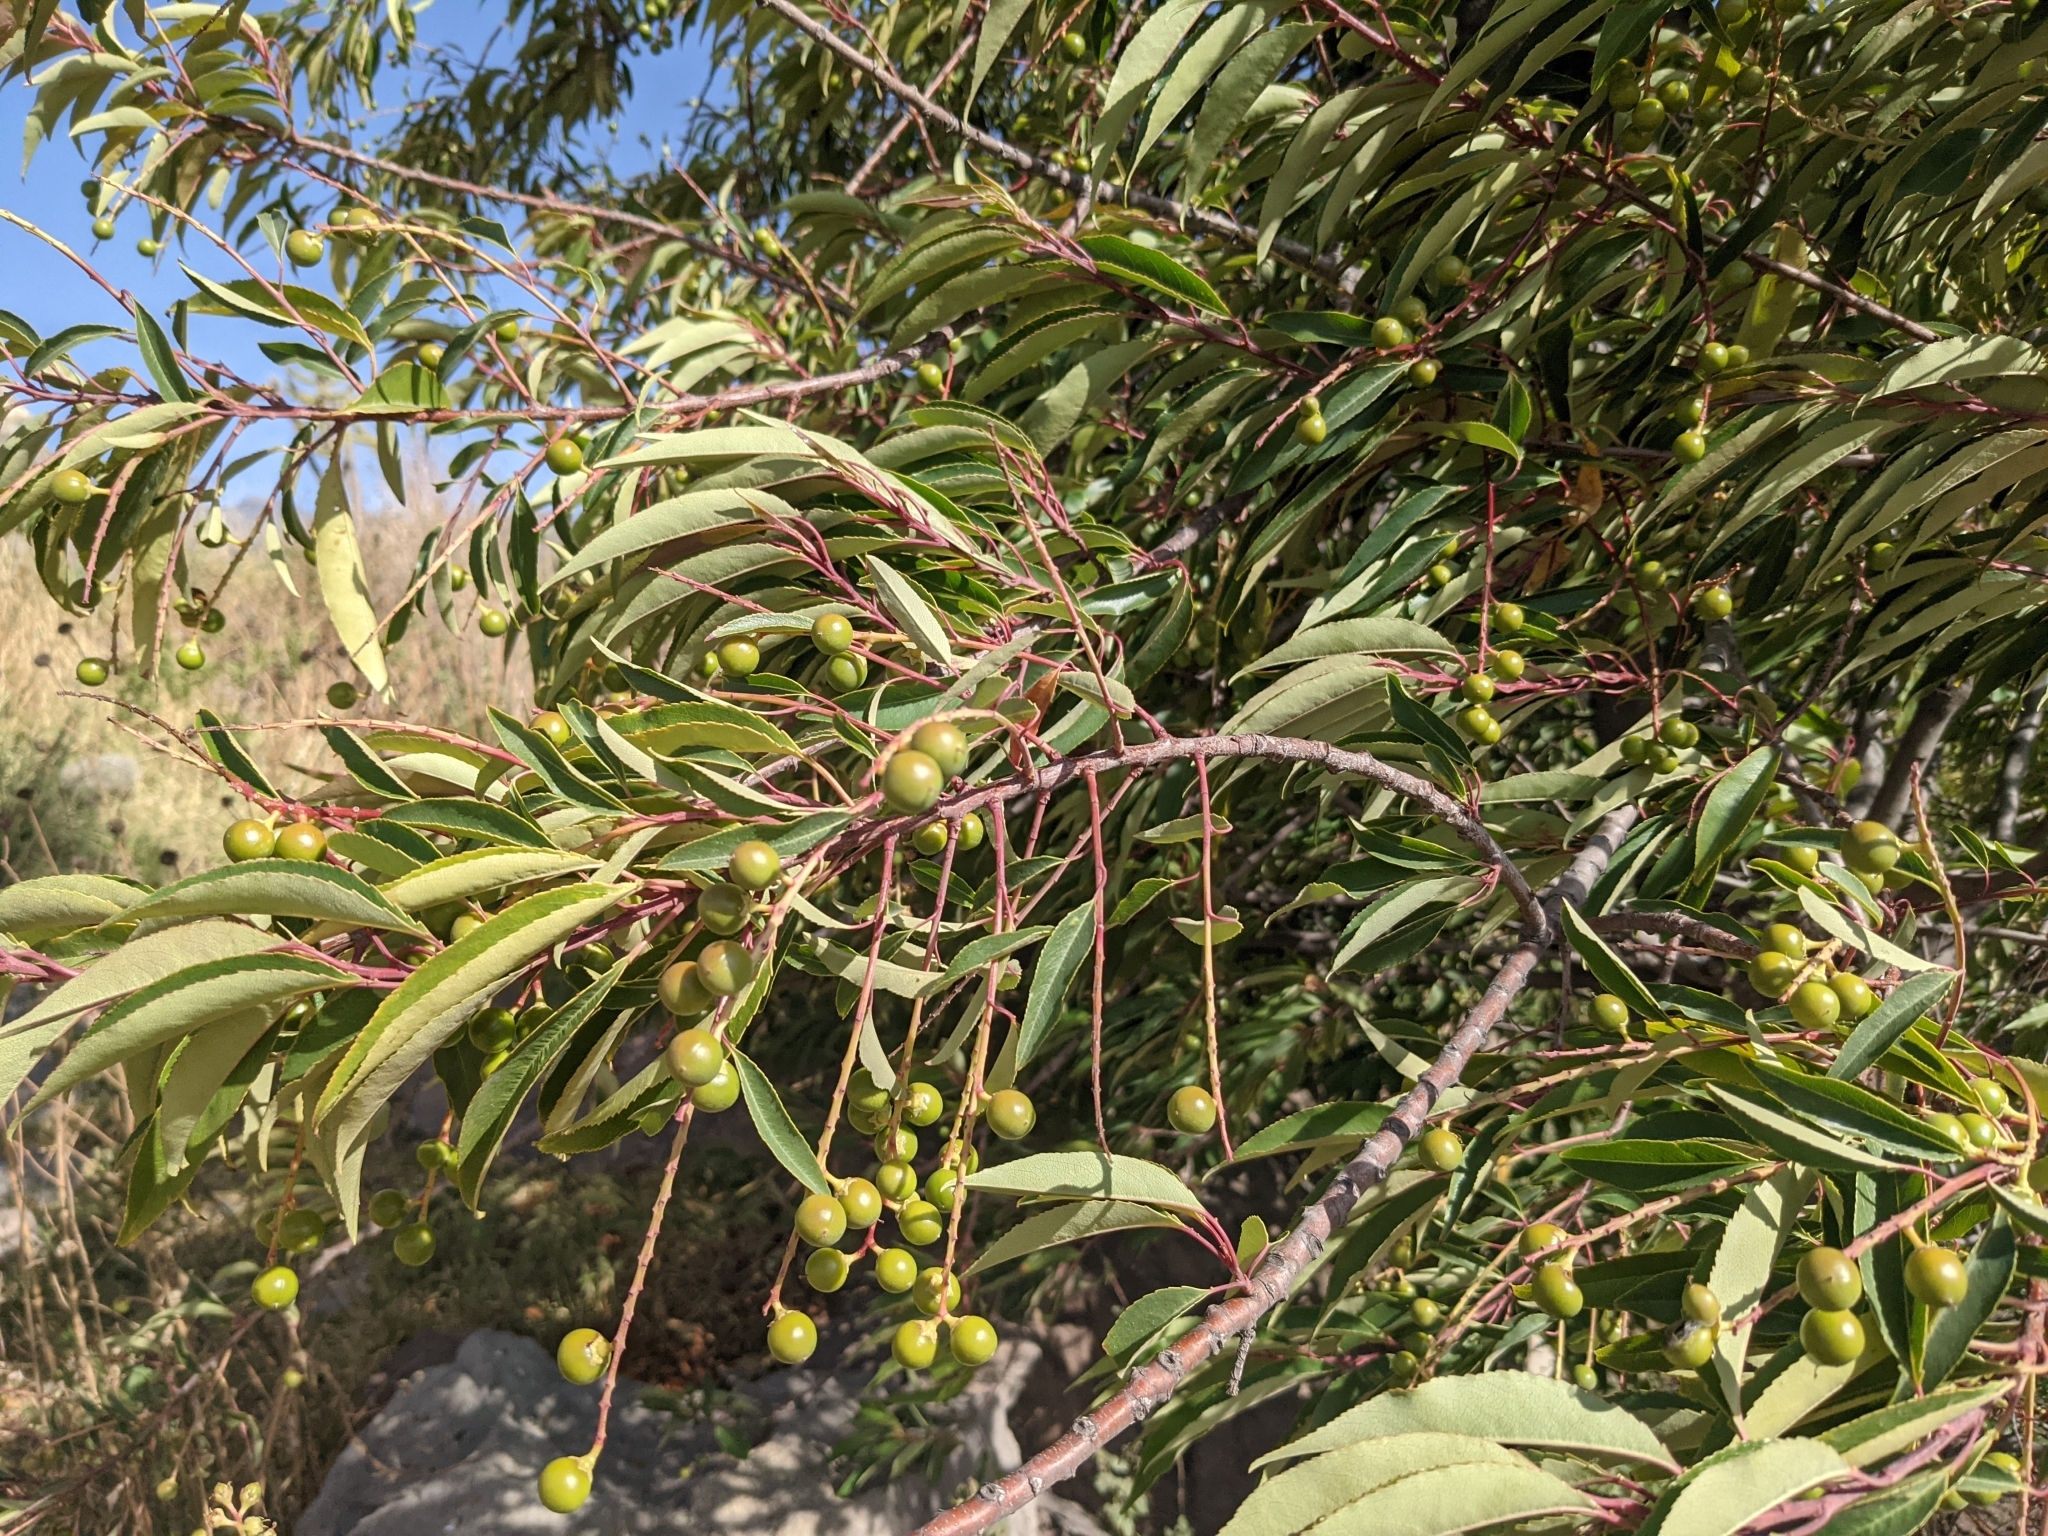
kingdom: Plantae
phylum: Tracheophyta
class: Magnoliopsida
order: Rosales
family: Rosaceae
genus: Prunus
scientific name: Prunus serotina
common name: Black cherry
